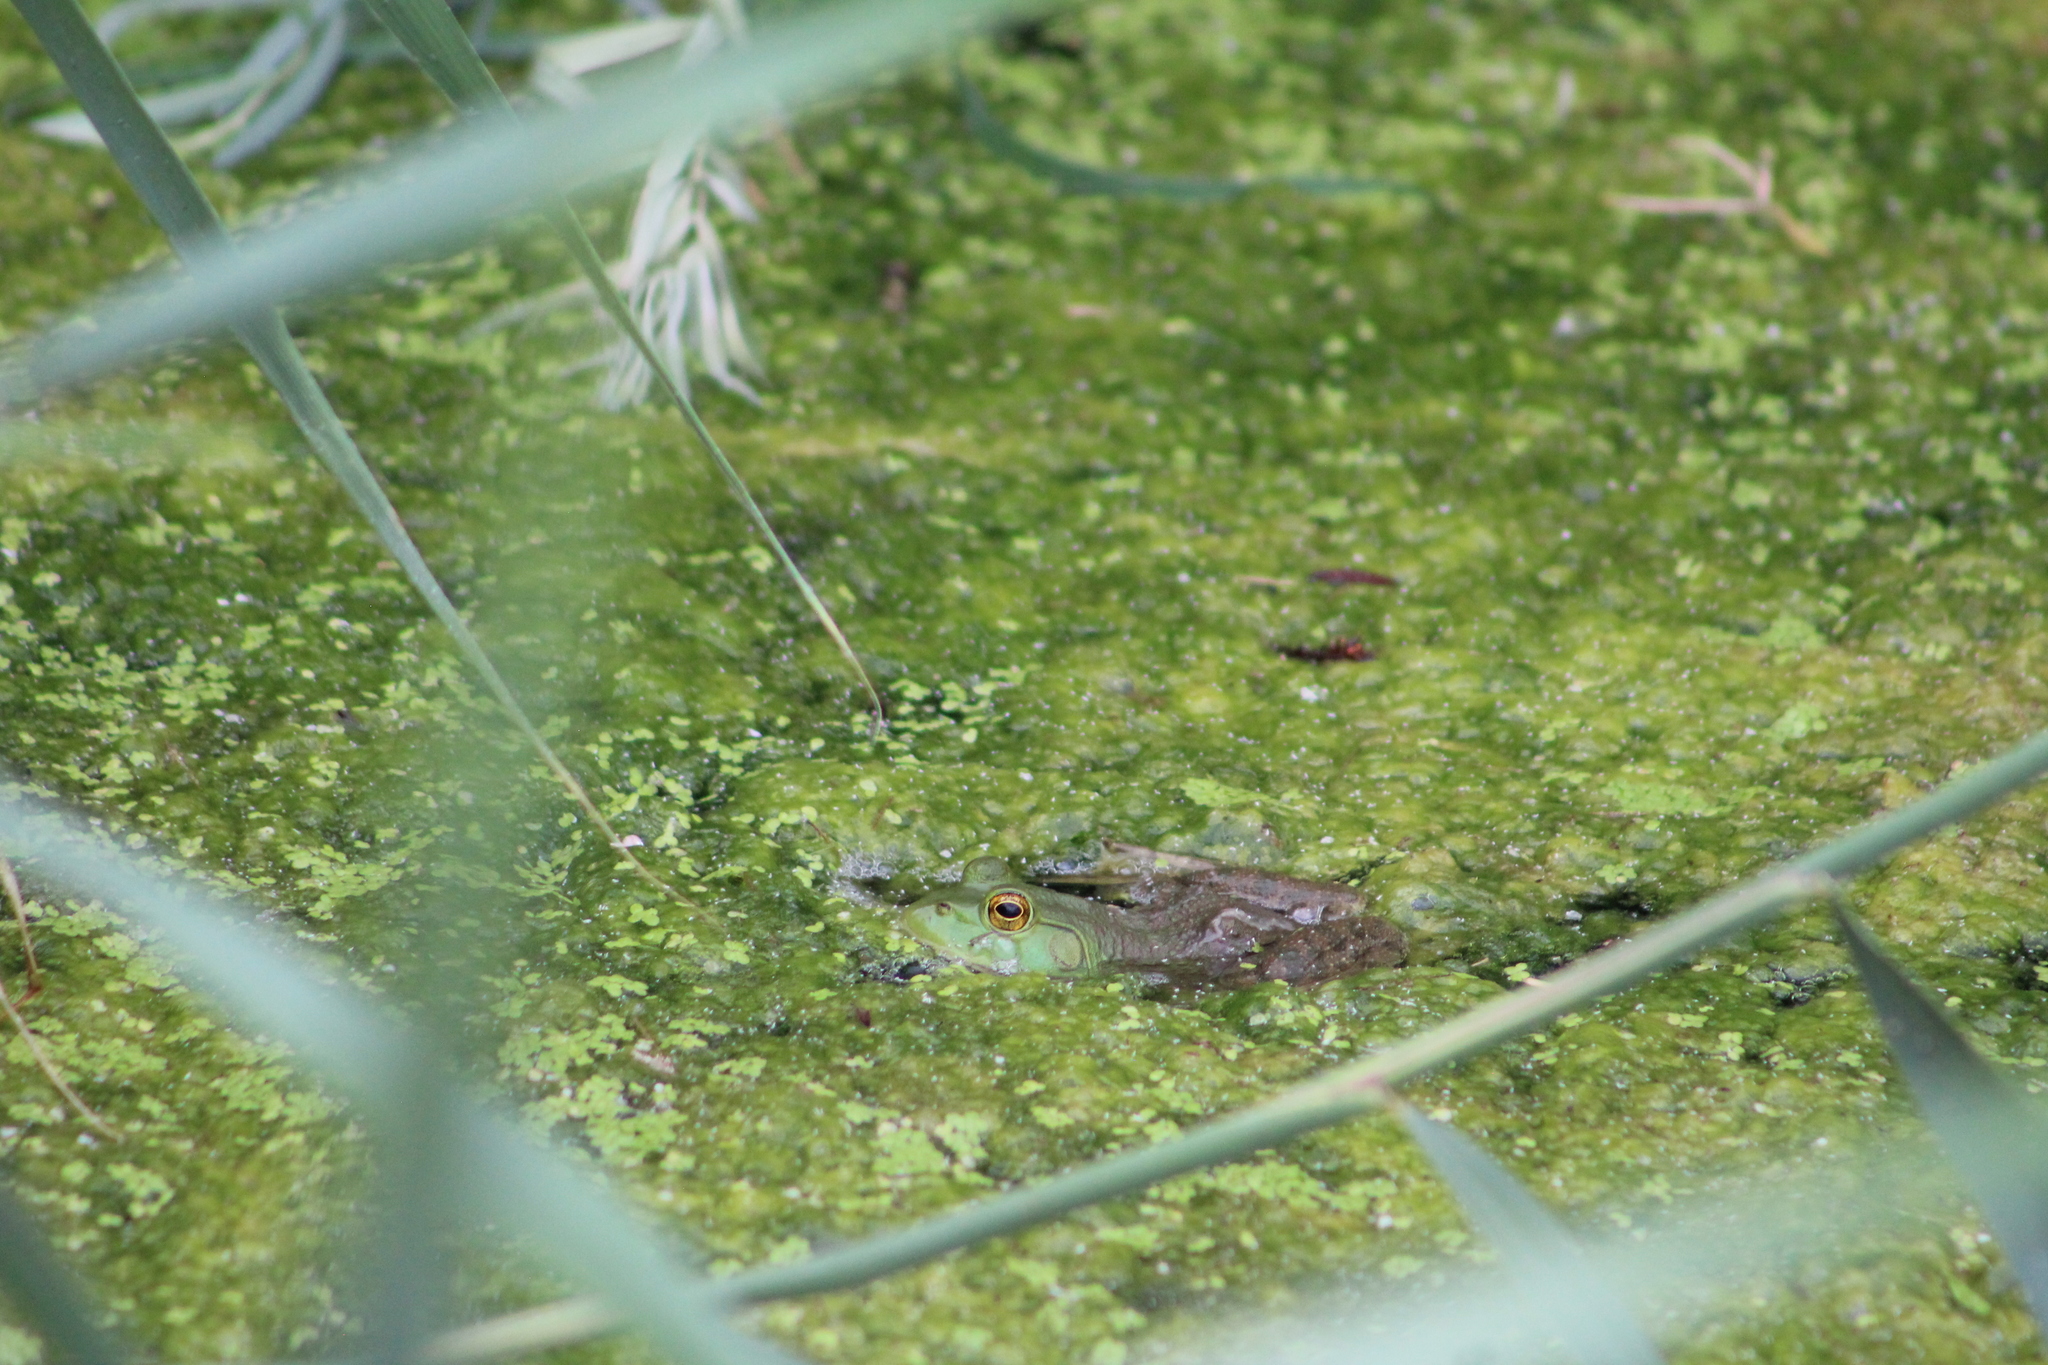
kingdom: Animalia
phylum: Chordata
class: Amphibia
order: Anura
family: Ranidae
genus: Lithobates
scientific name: Lithobates catesbeianus
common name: American bullfrog
